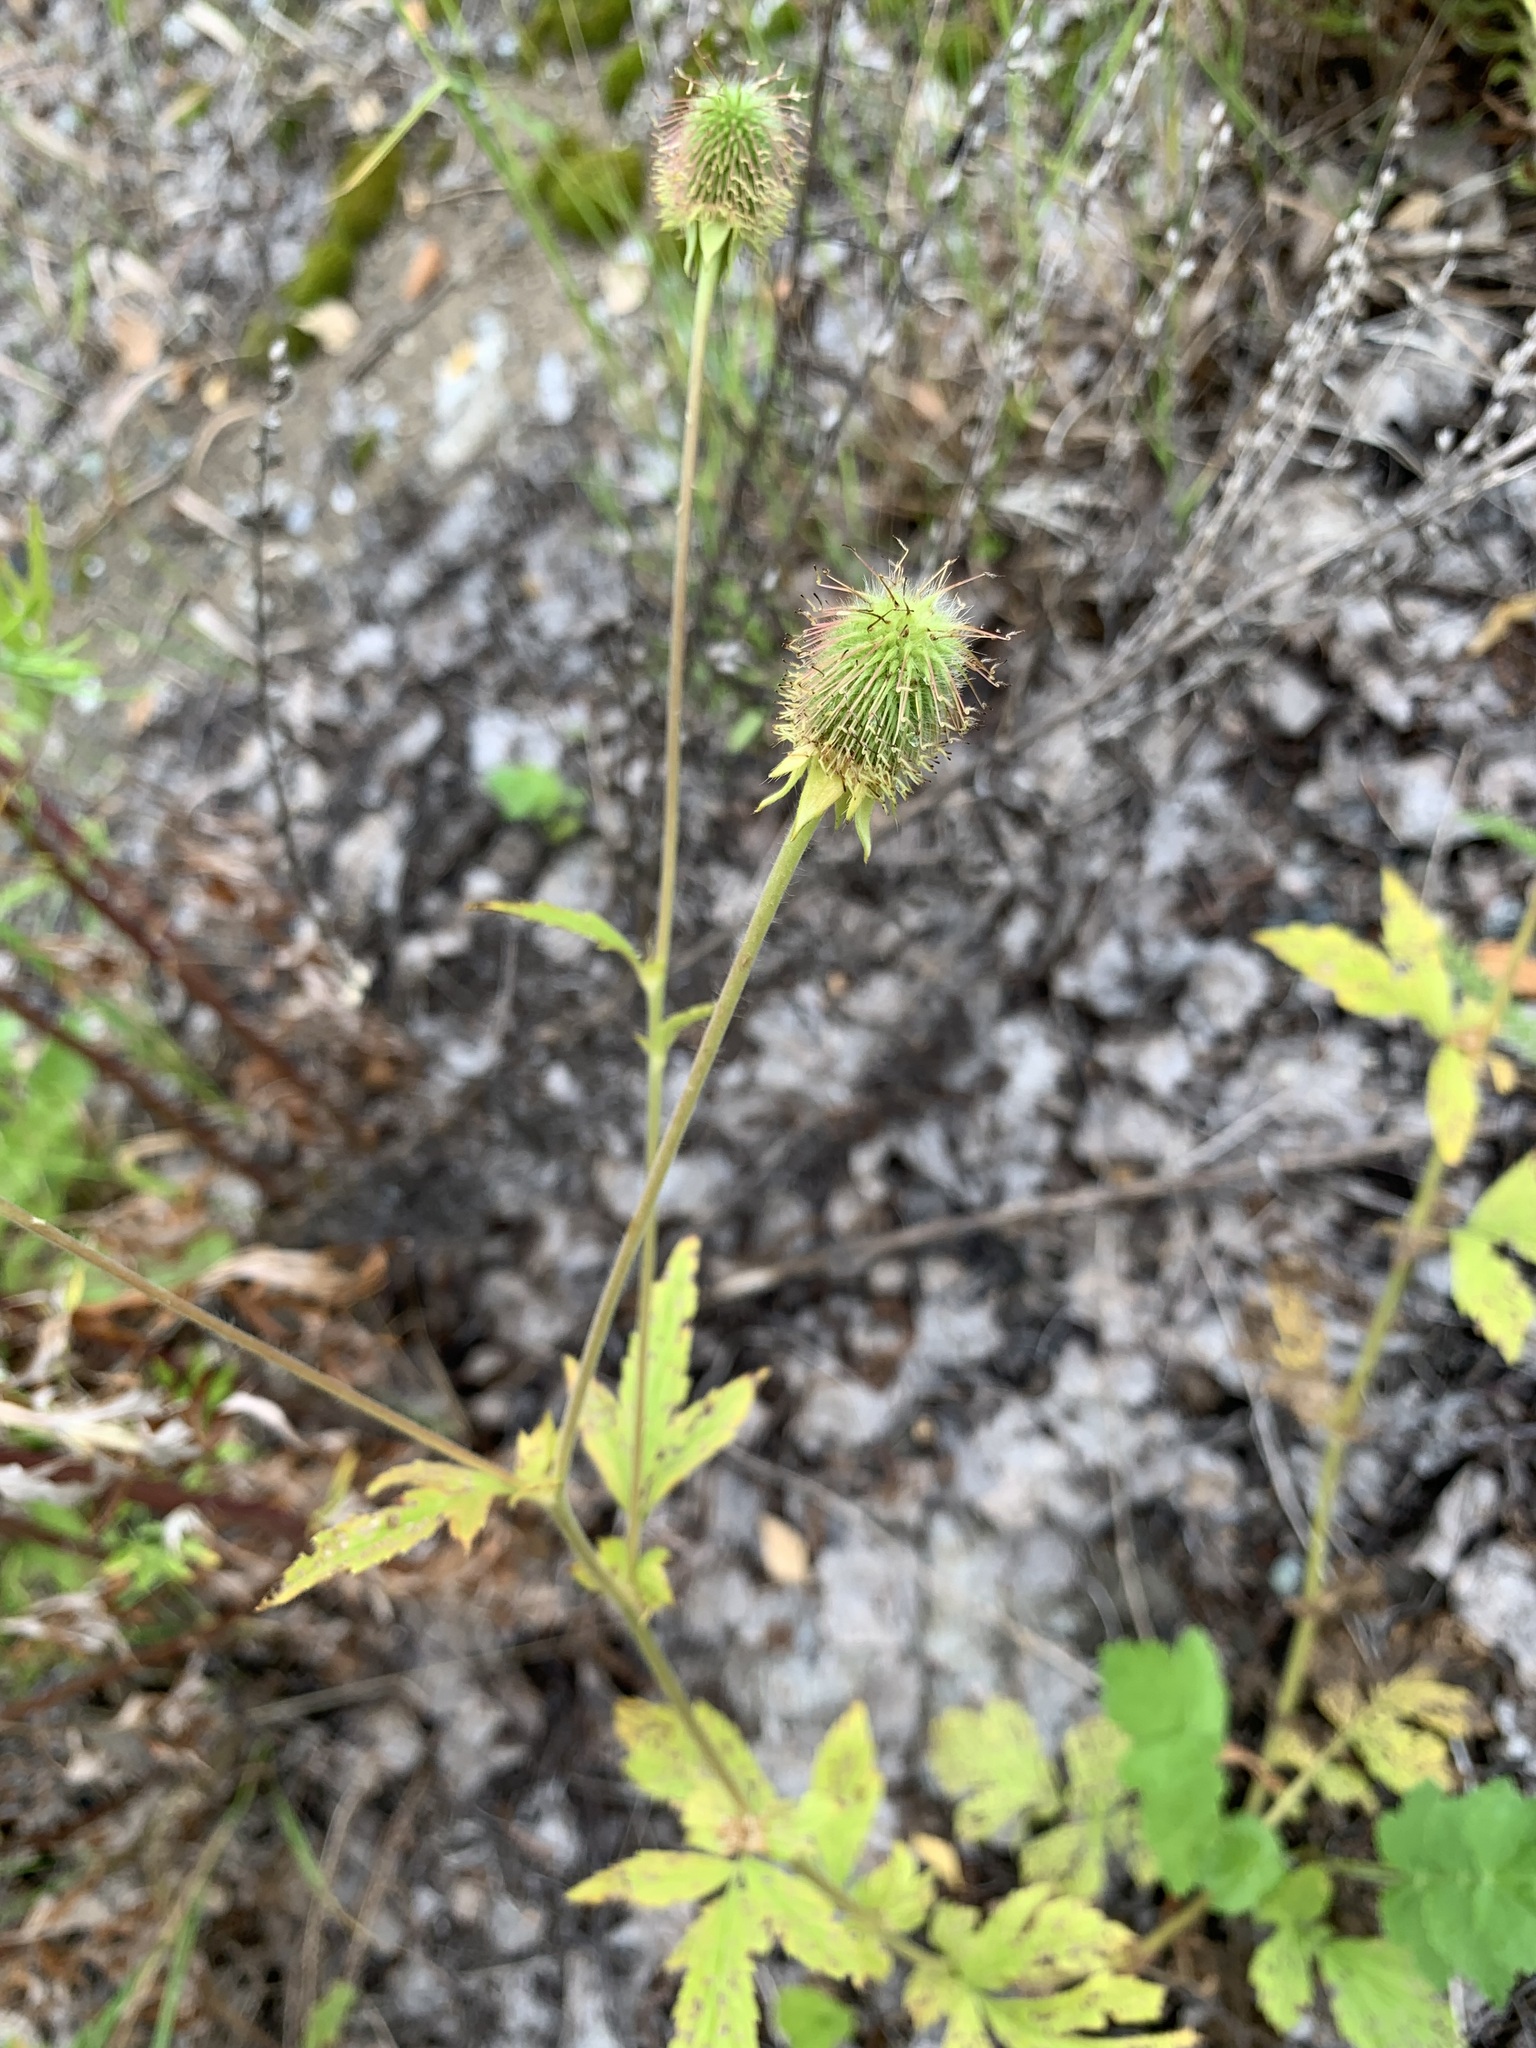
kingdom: Plantae
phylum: Tracheophyta
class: Magnoliopsida
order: Rosales
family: Rosaceae
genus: Geum
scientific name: Geum aleppicum
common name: Yellow avens
